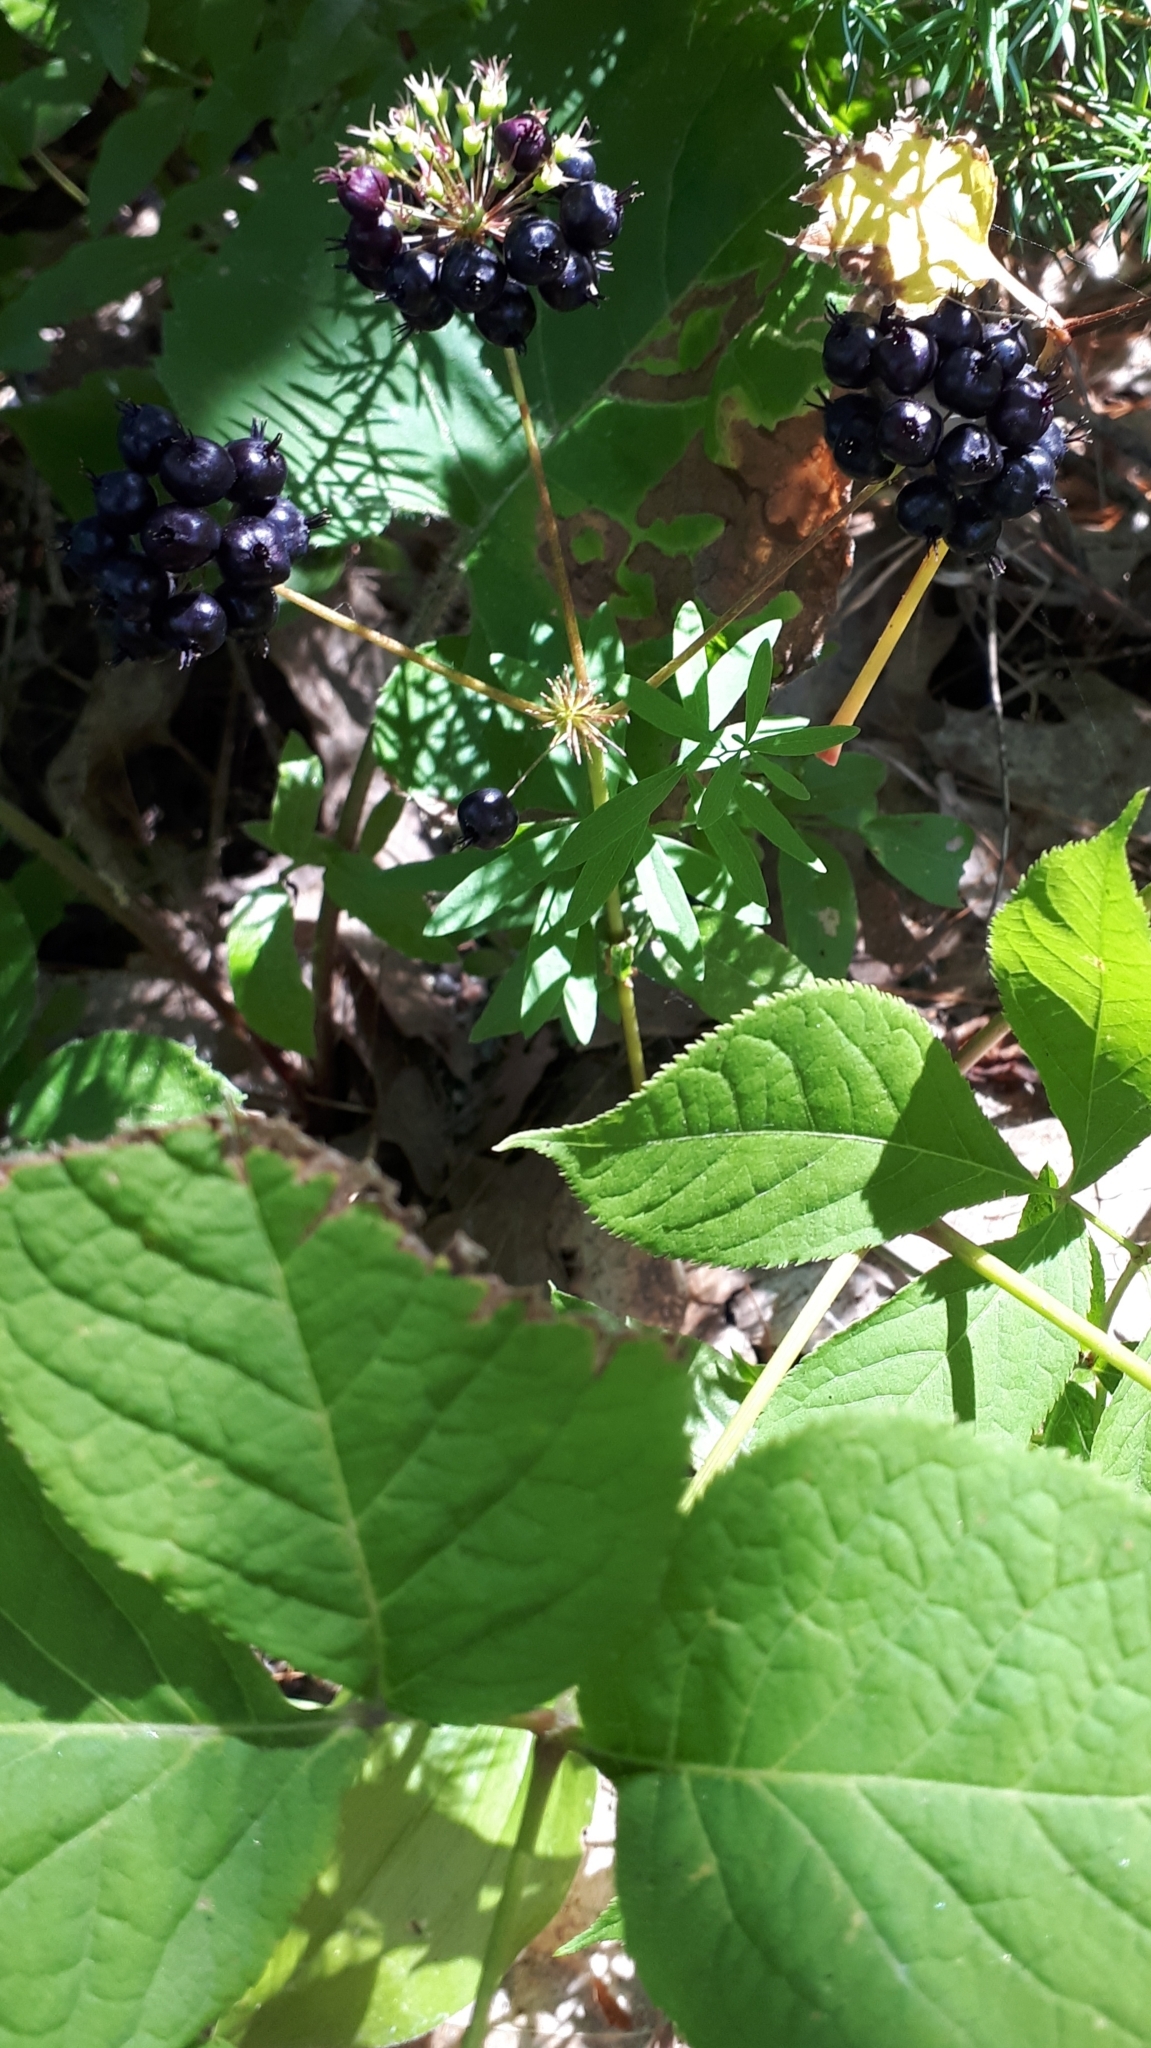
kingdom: Plantae
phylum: Tracheophyta
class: Magnoliopsida
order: Apiales
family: Araliaceae
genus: Aralia
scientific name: Aralia nudicaulis
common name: Wild sarsaparilla
